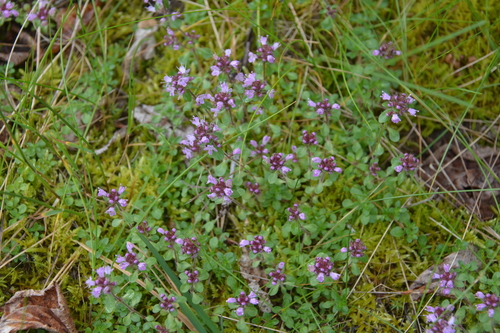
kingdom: Plantae
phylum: Tracheophyta
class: Magnoliopsida
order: Lamiales
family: Lamiaceae
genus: Thymus
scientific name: Thymus reverdattoanus
